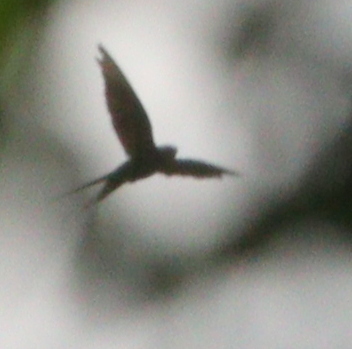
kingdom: Animalia
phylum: Chordata
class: Aves
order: Passeriformes
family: Hirundinidae
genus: Psalidoprocne
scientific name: Psalidoprocne obscura
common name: Fanti saw-wing
